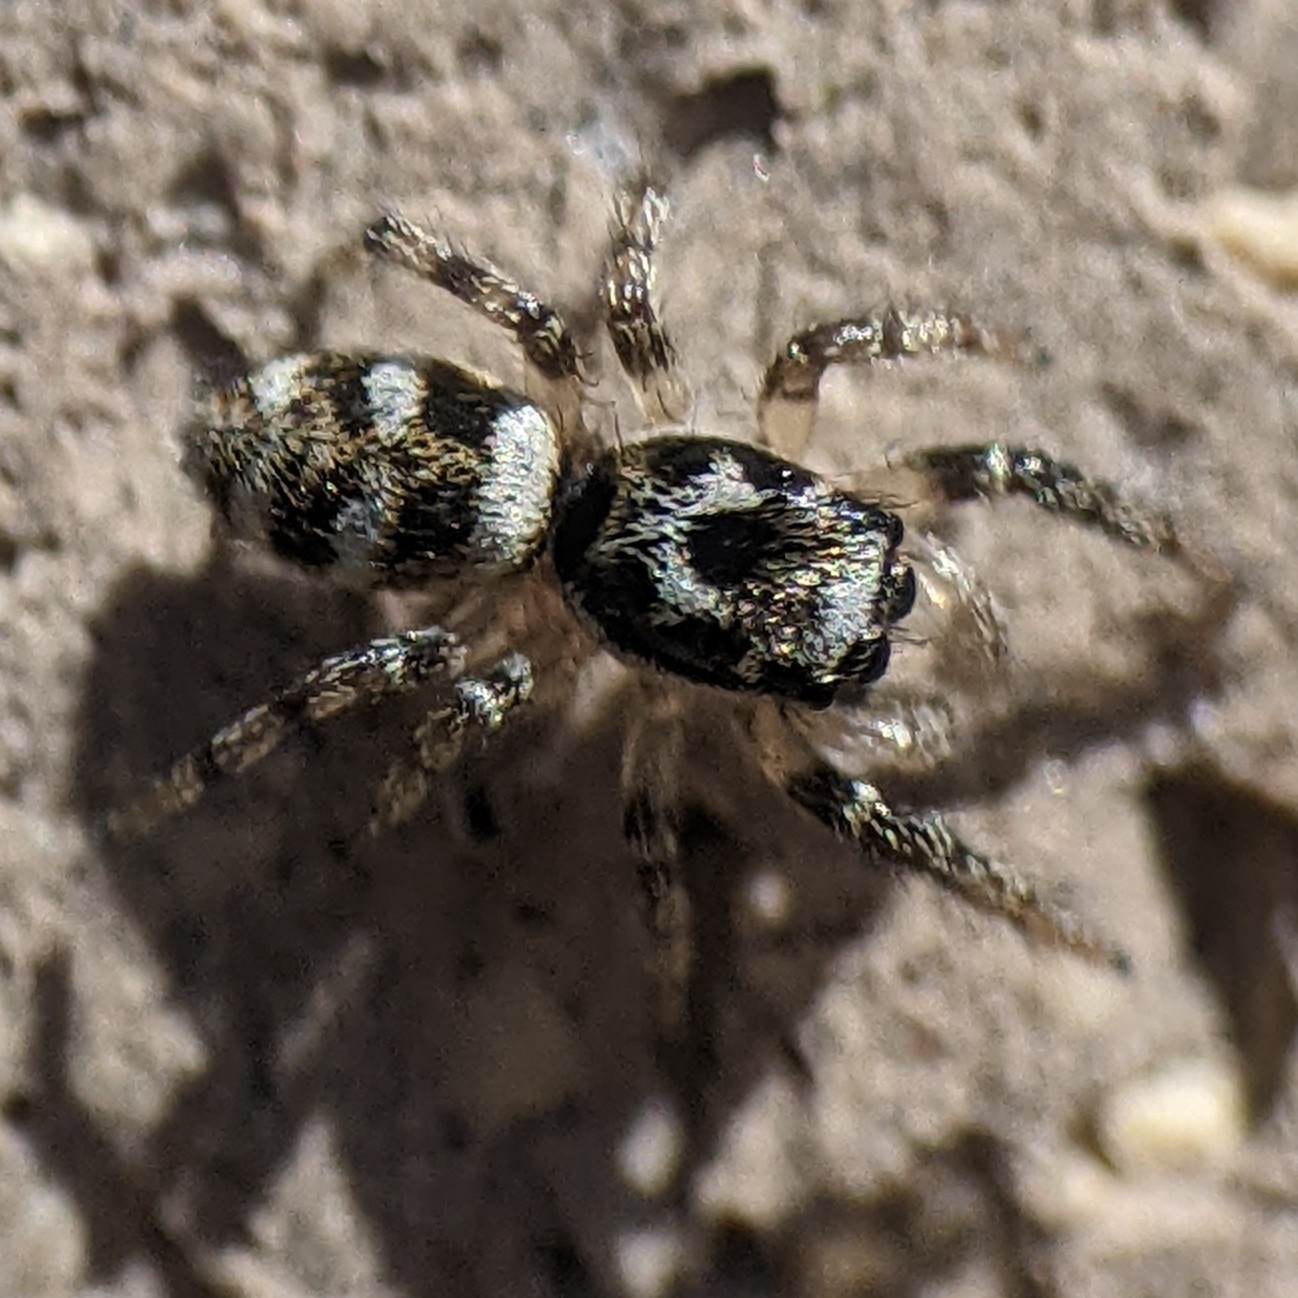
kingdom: Animalia
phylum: Arthropoda
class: Arachnida
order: Araneae
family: Salticidae
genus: Salticus
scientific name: Salticus scenicus
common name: Zebra jumper
